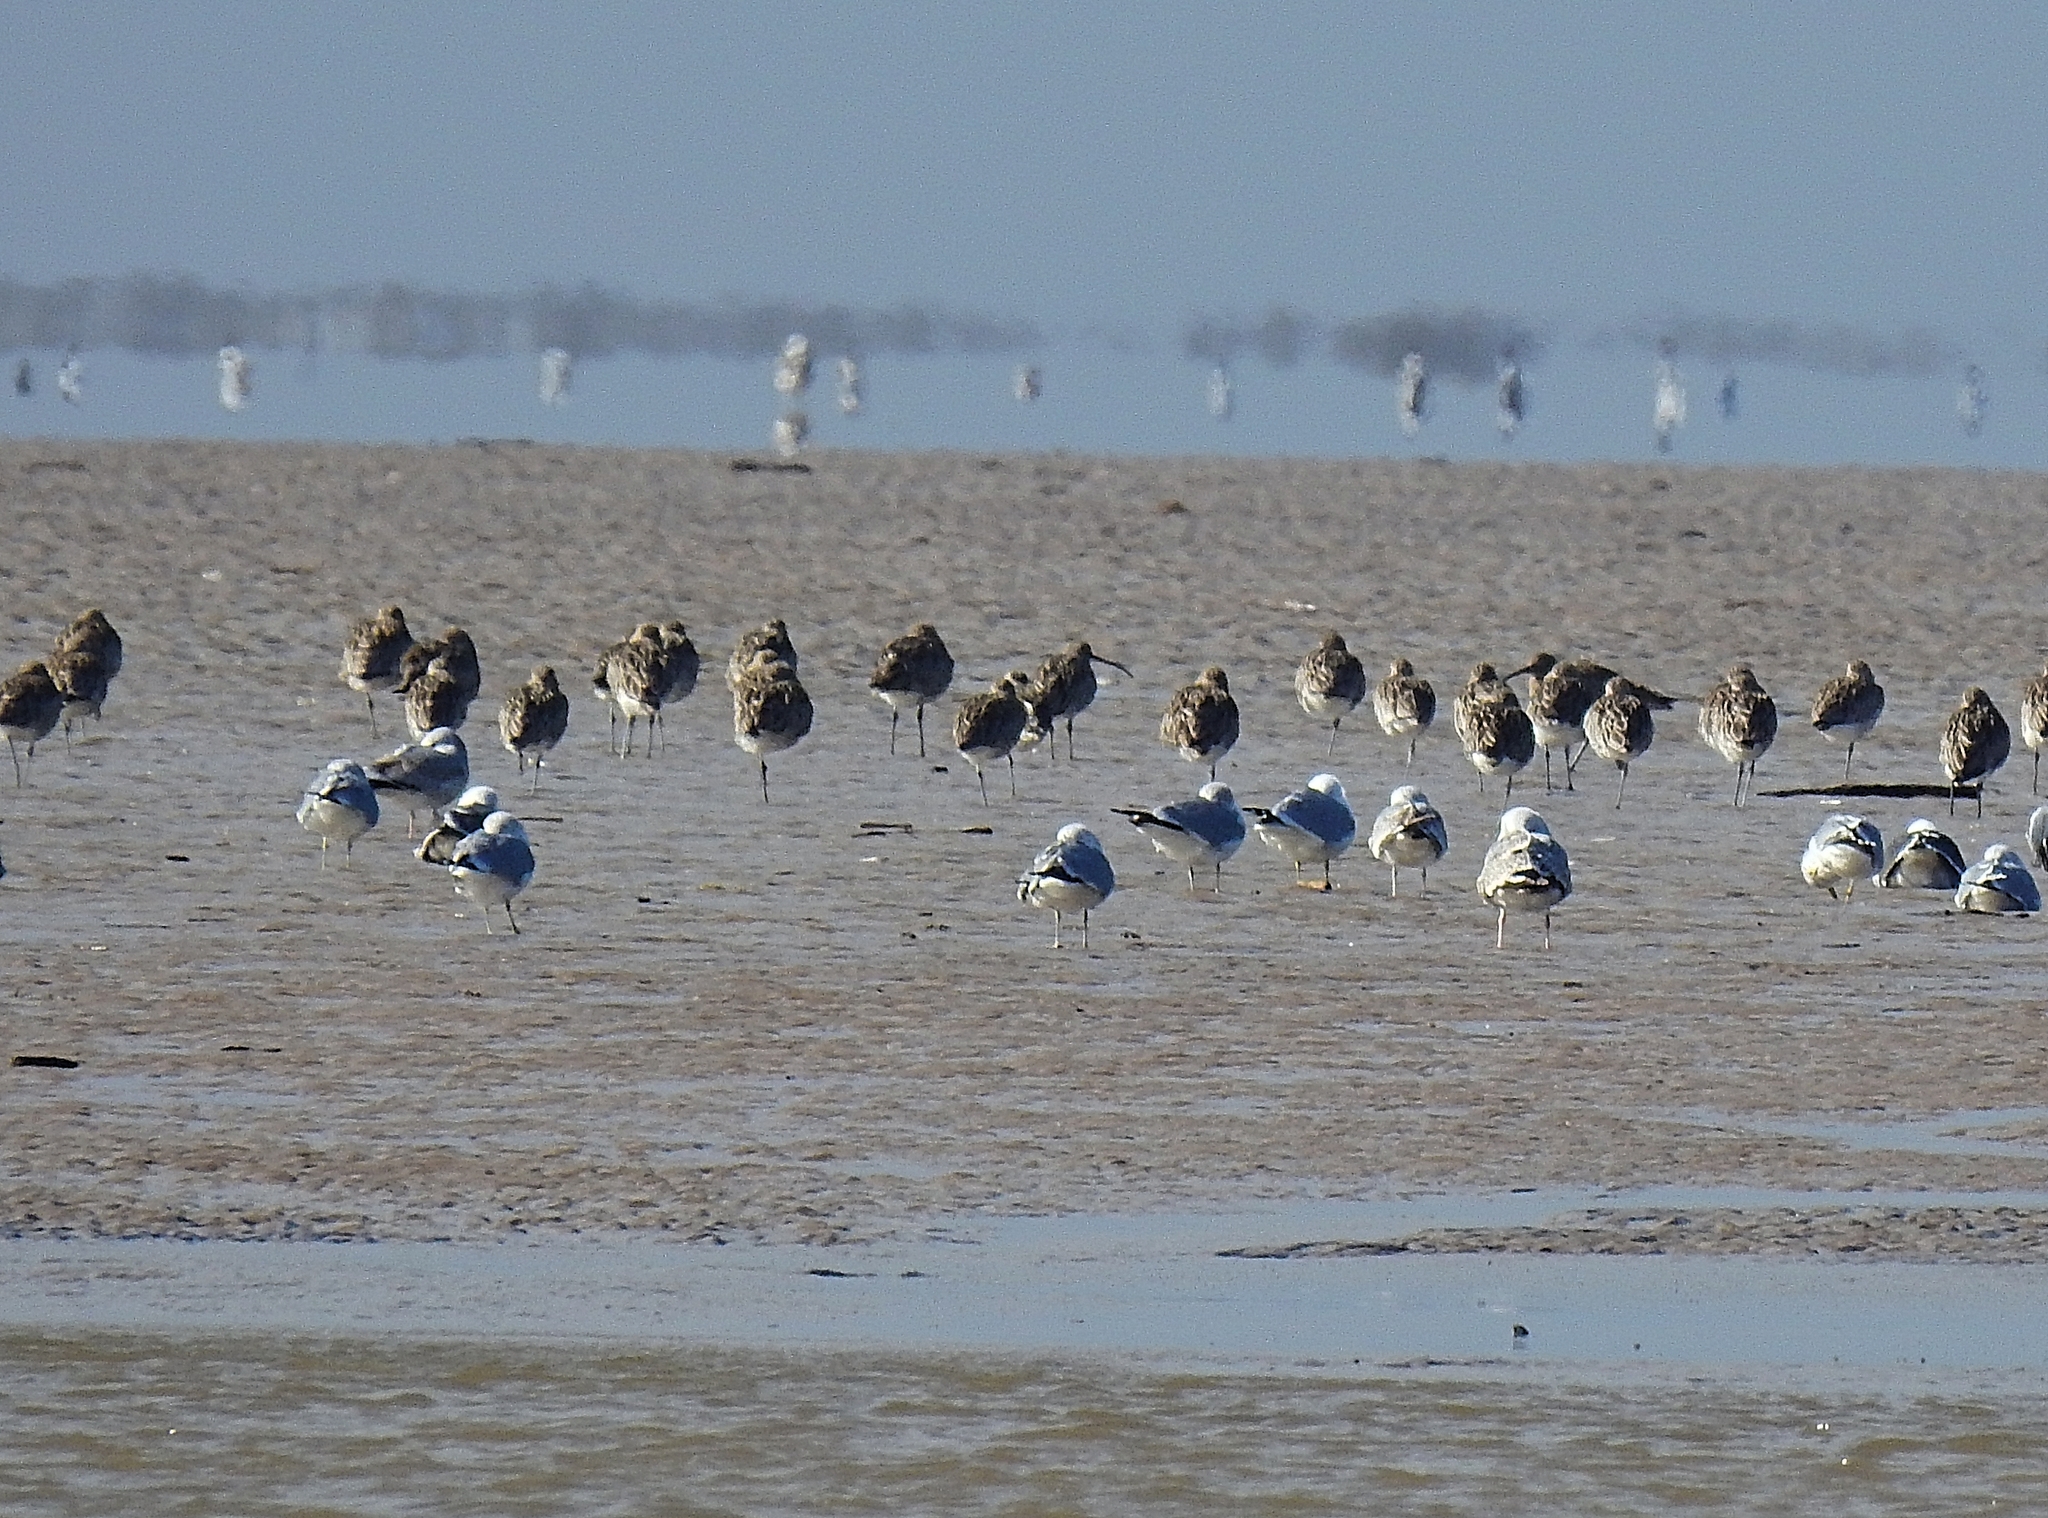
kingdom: Animalia
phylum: Chordata
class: Aves
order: Charadriiformes
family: Scolopacidae
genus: Numenius
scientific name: Numenius arquata
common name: Eurasian curlew
